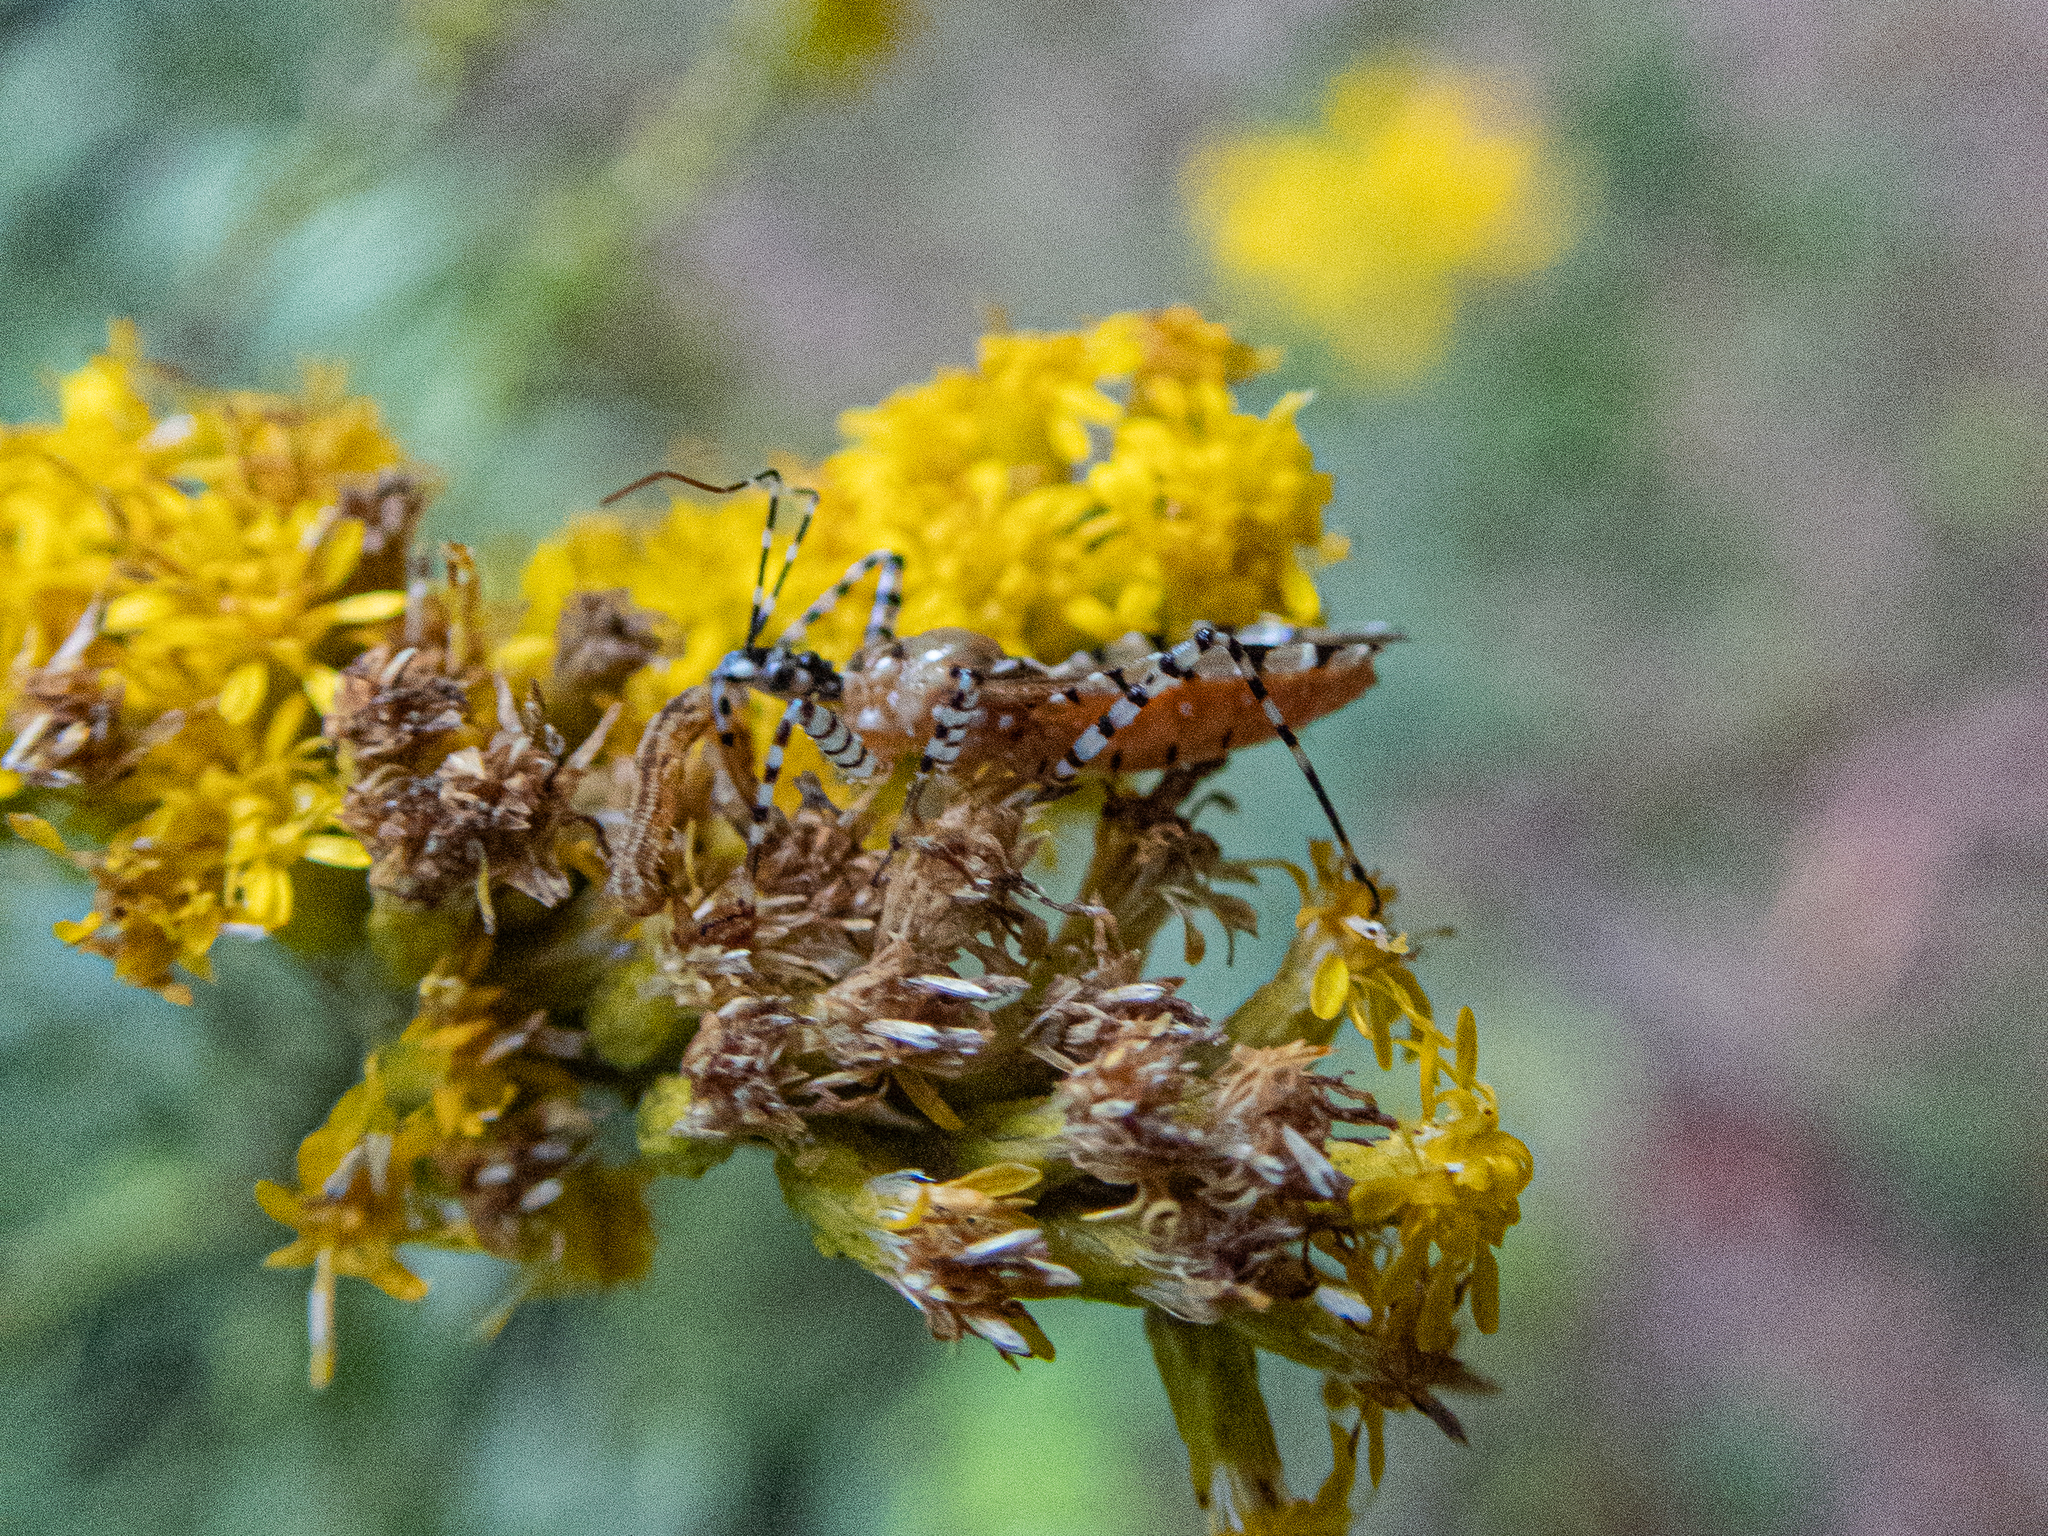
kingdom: Animalia
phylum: Arthropoda
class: Insecta
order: Hemiptera
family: Reduviidae
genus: Pselliopus
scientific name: Pselliopus cinctus
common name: Ringed assassin bug
